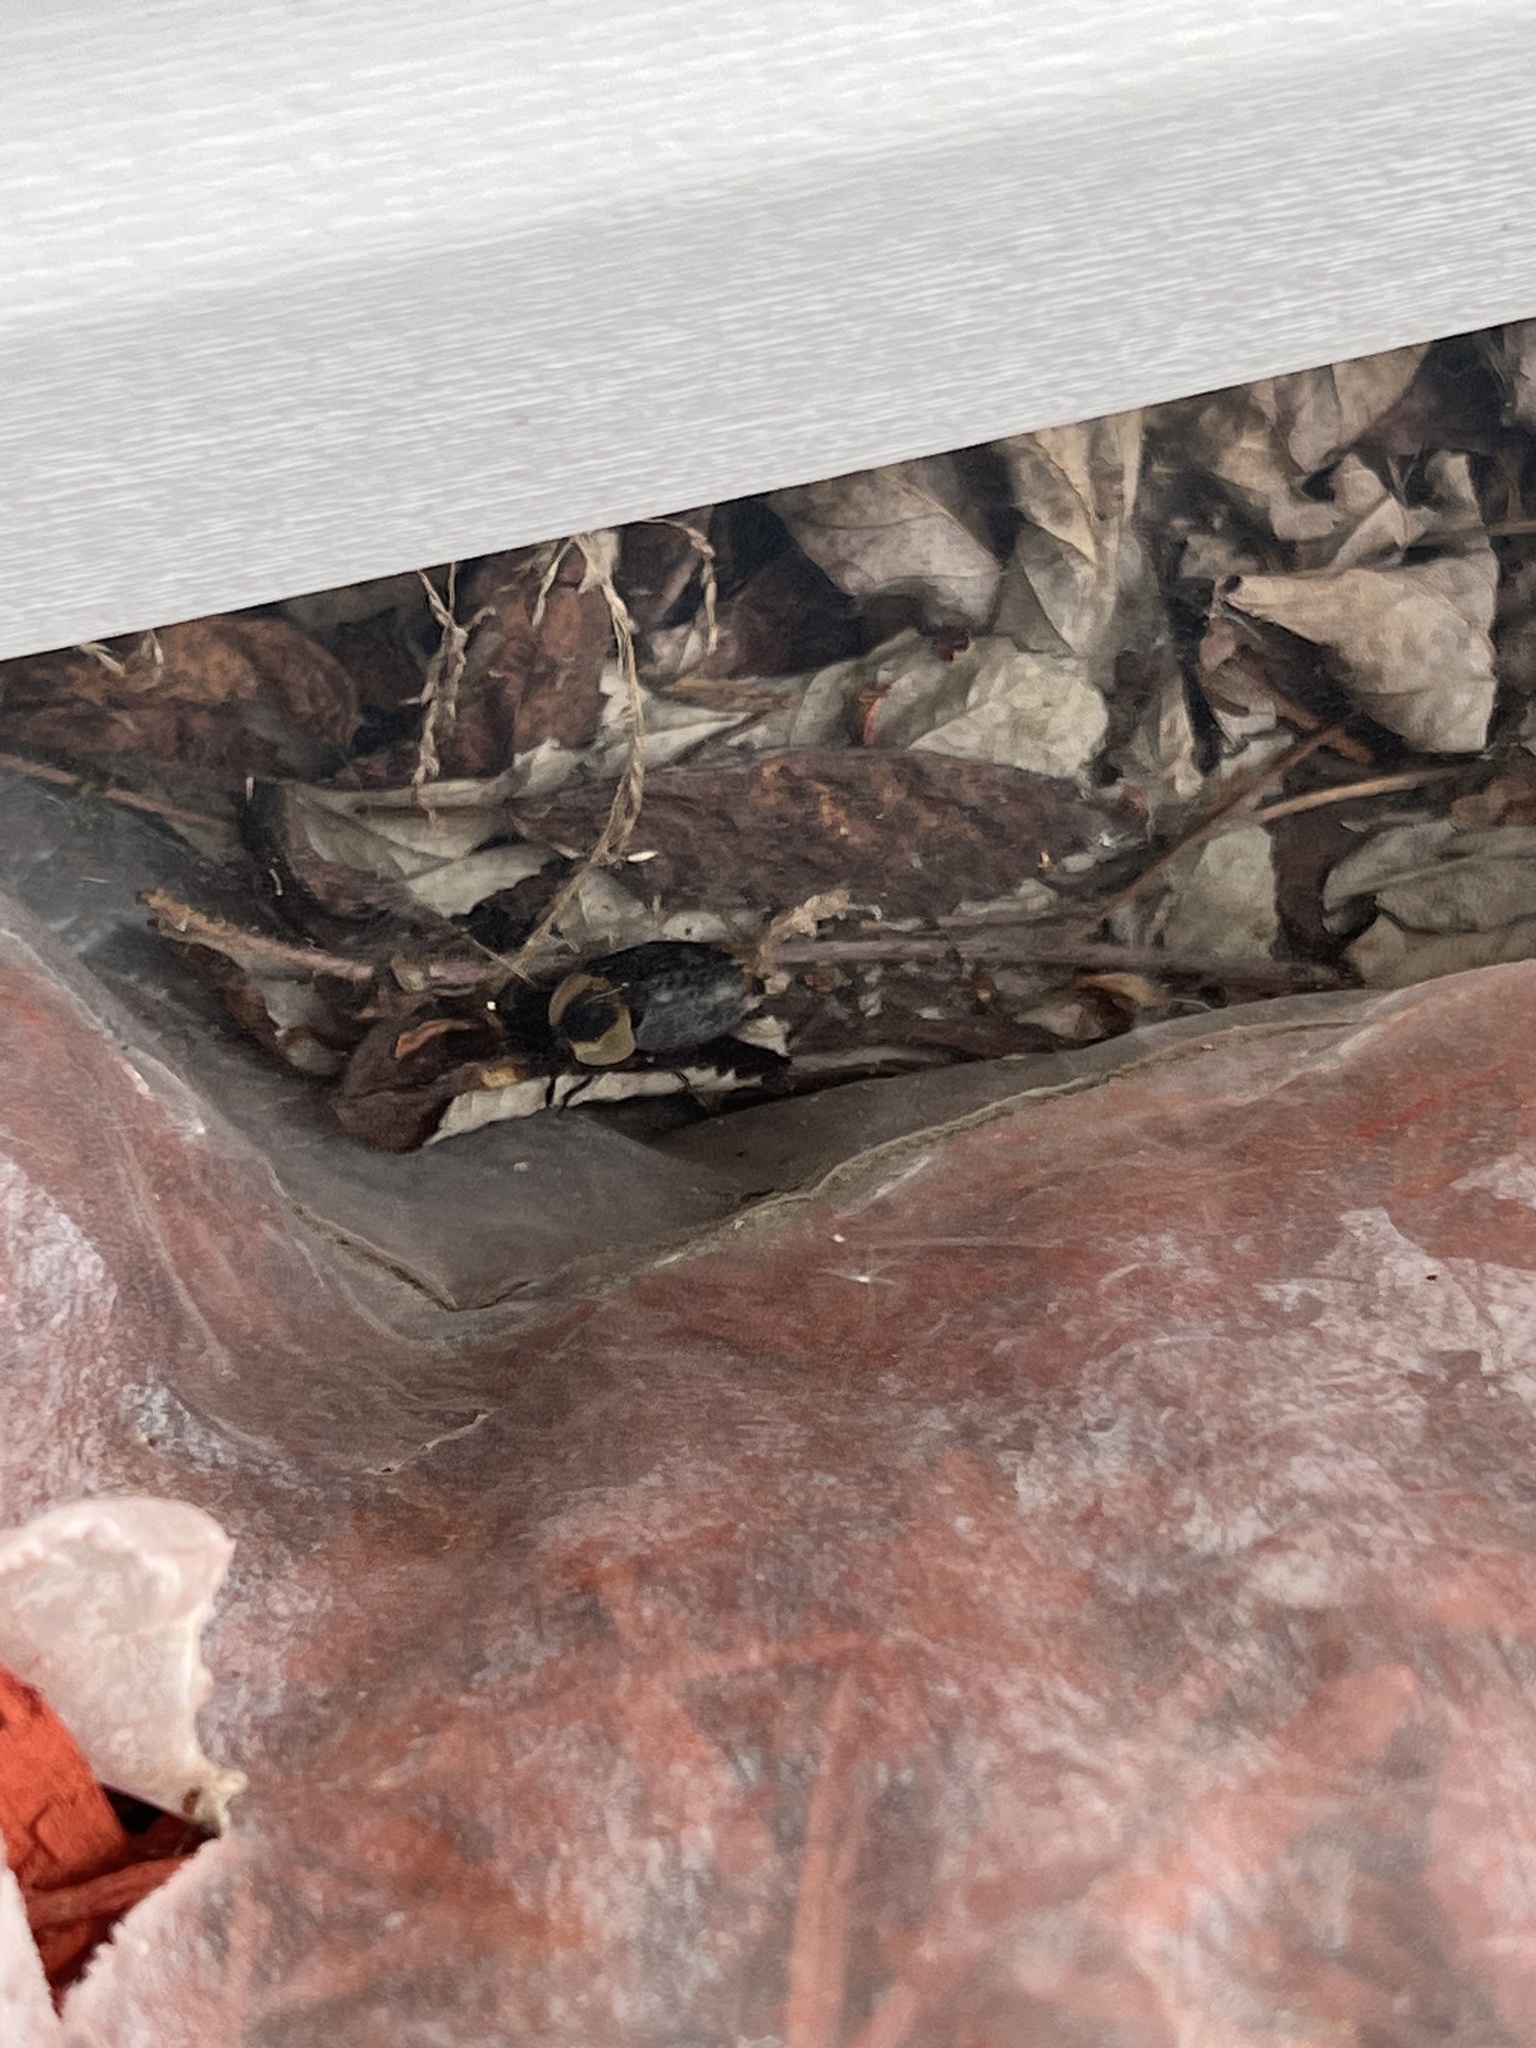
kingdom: Animalia
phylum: Arthropoda
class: Insecta
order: Coleoptera
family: Staphylinidae
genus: Necrophila
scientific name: Necrophila americana
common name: American carrion beetle
